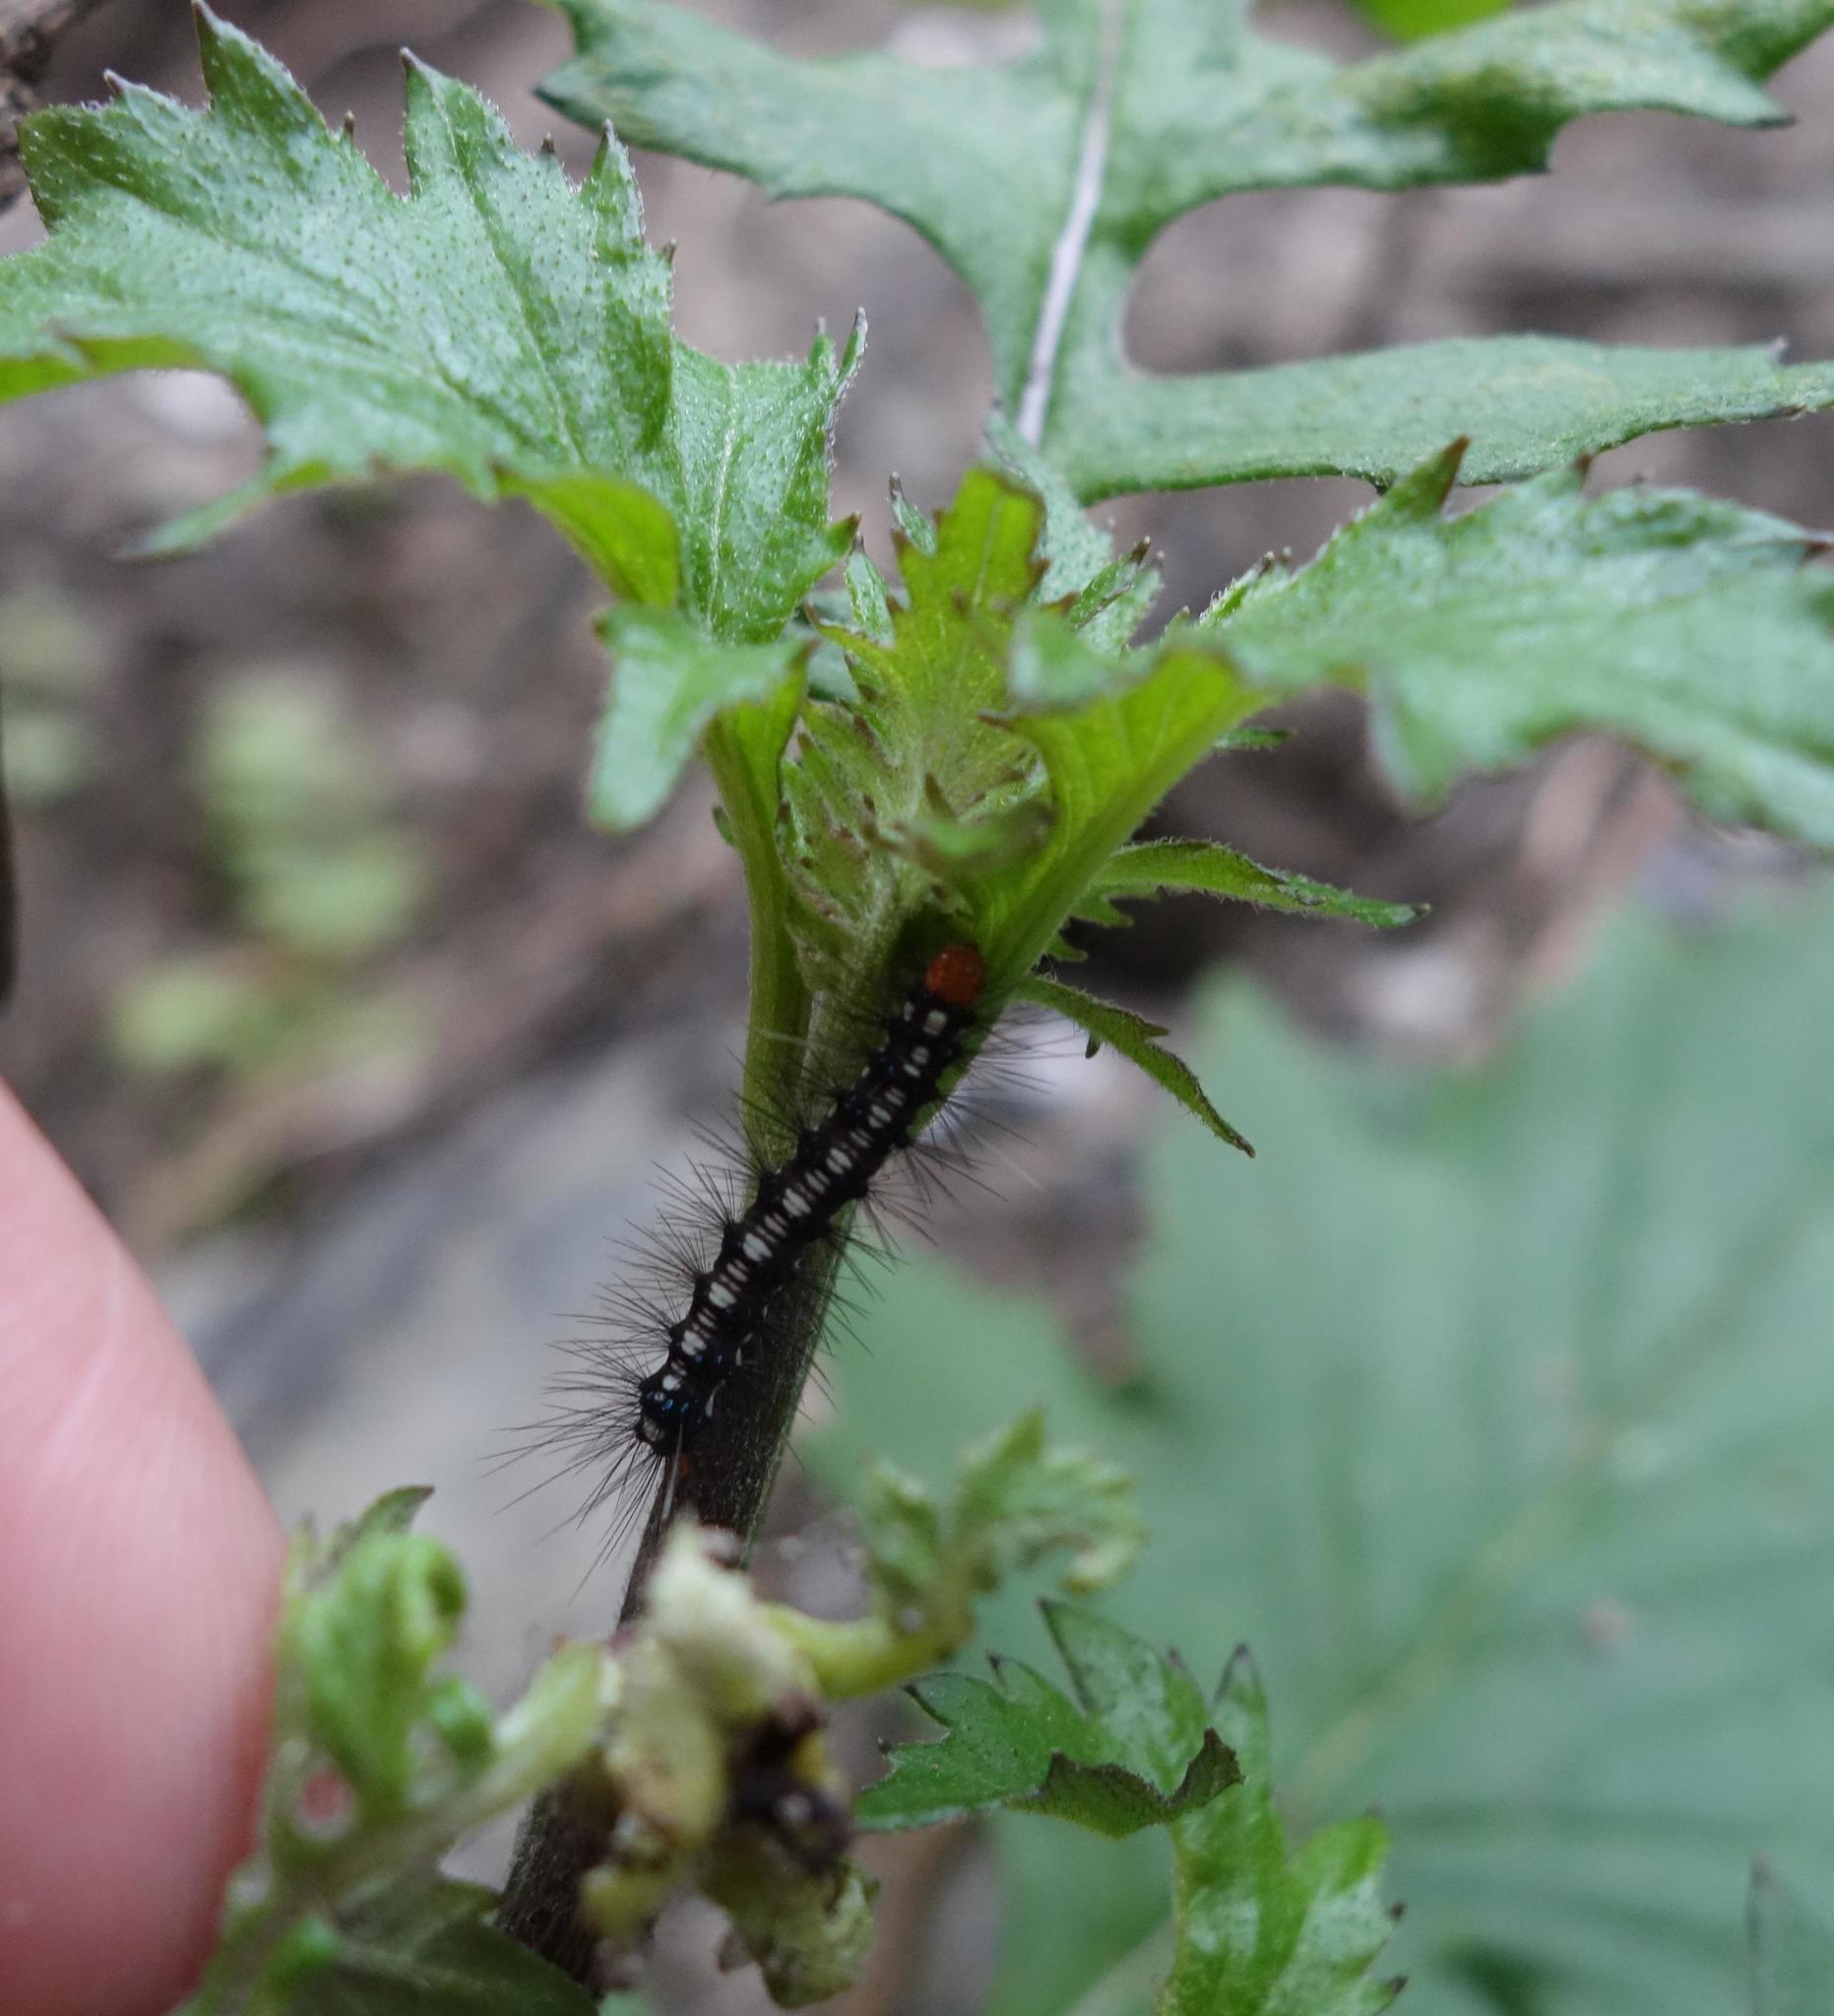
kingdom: Animalia
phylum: Arthropoda
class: Insecta
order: Lepidoptera
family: Erebidae
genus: Nyctemera
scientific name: Nyctemera adversata
